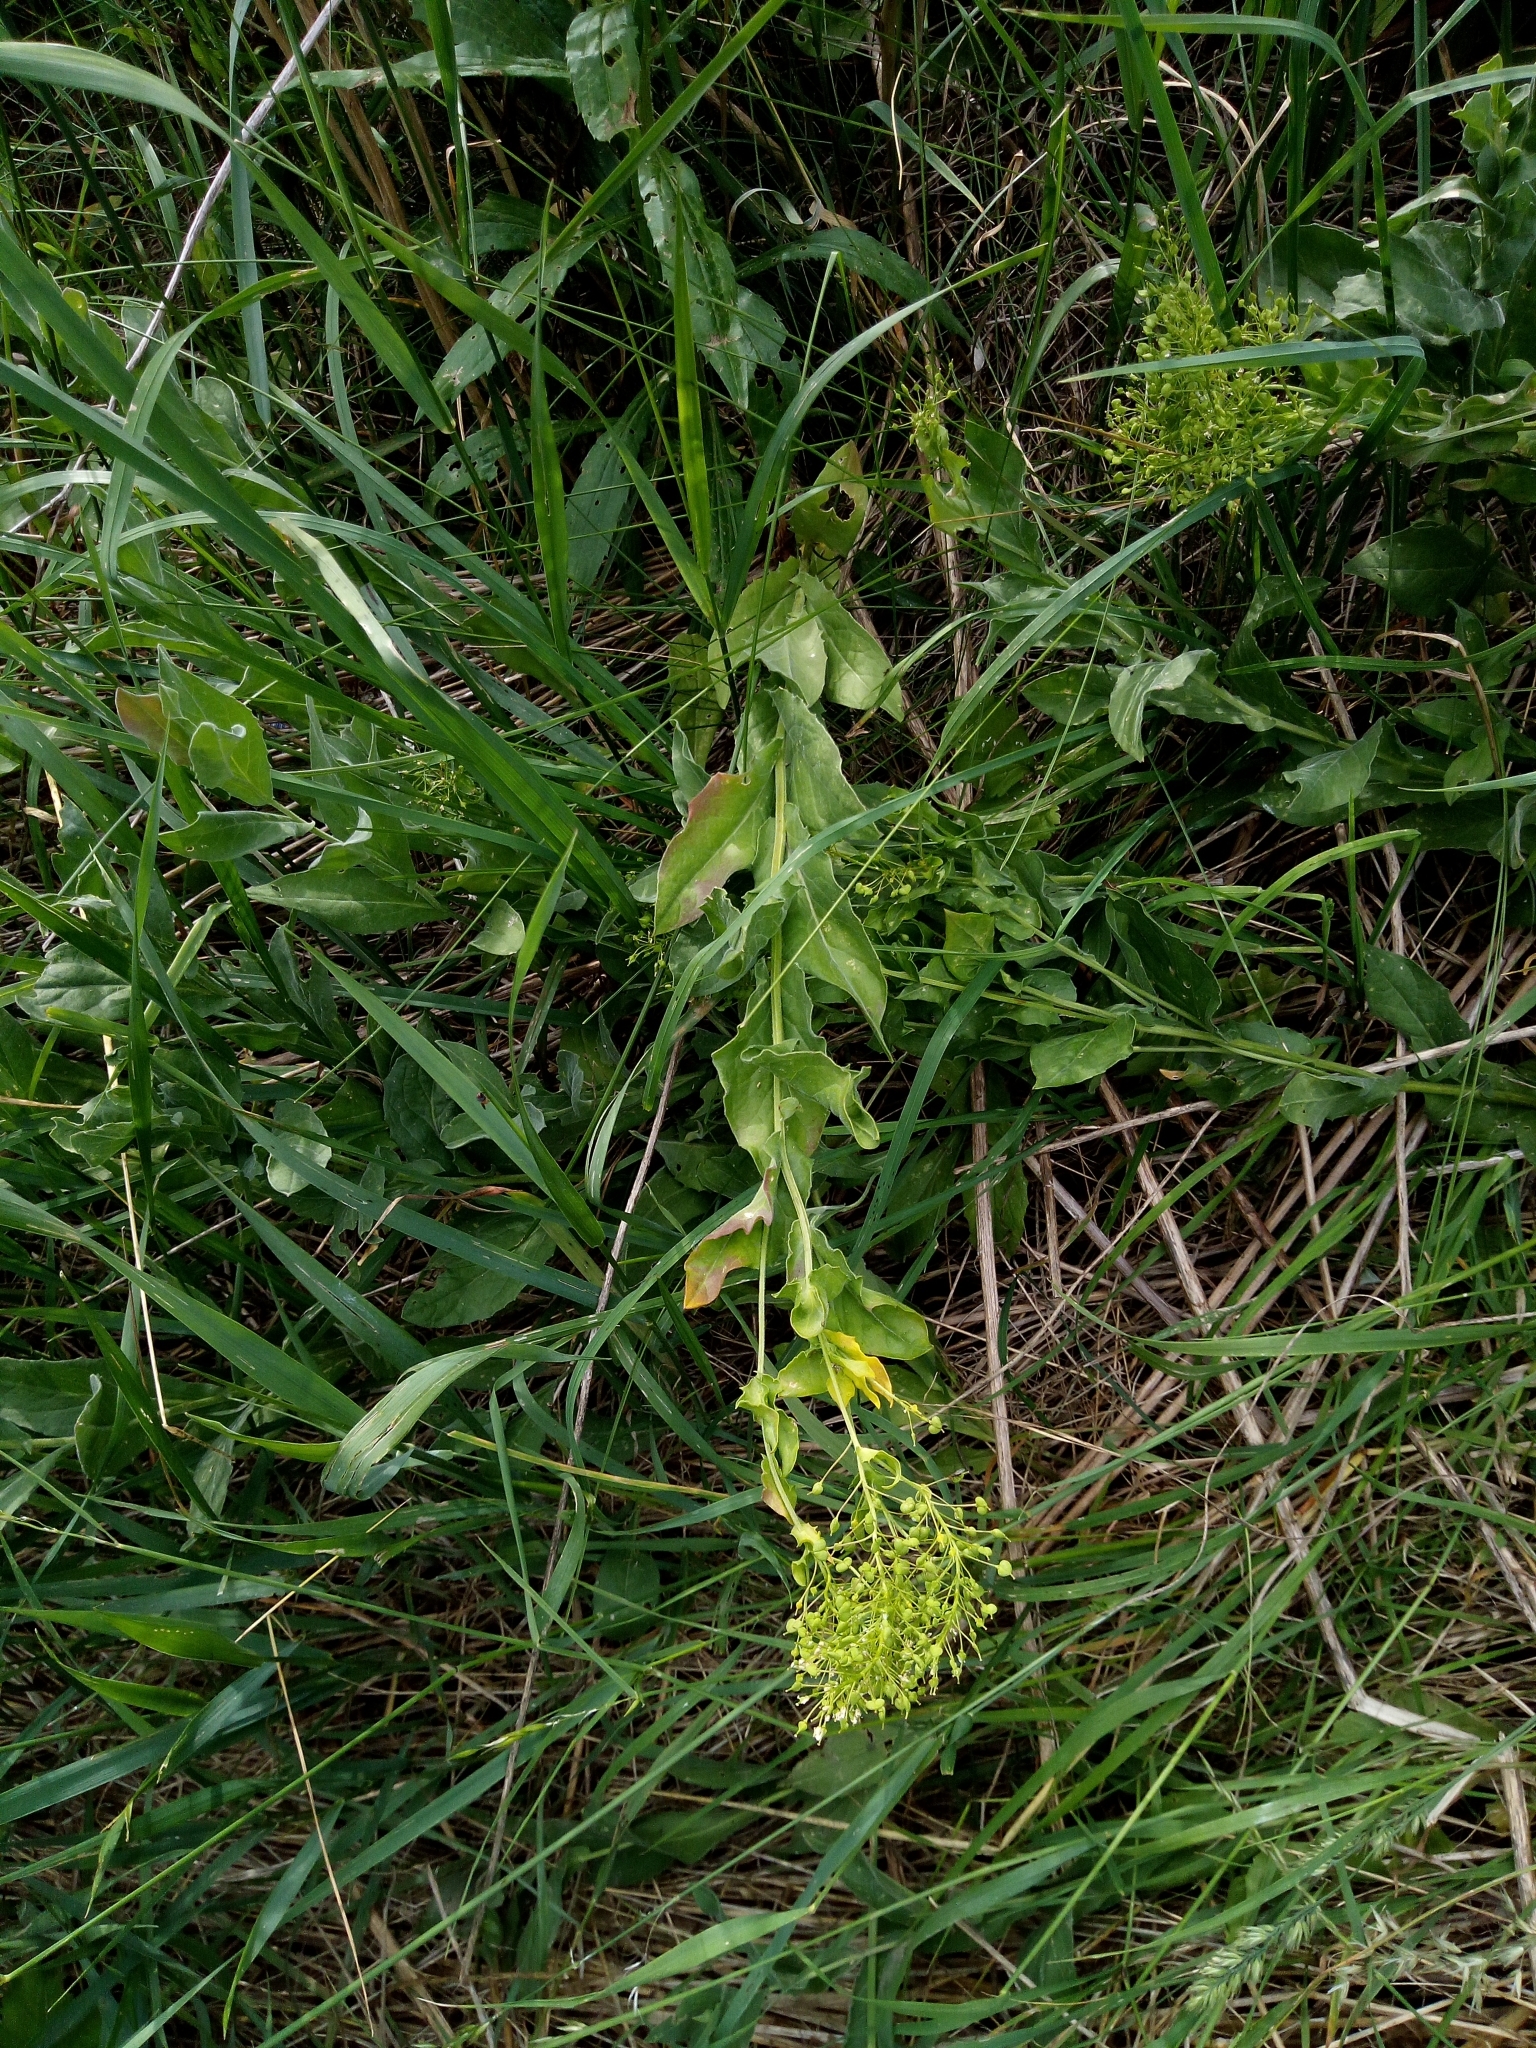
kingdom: Plantae
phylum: Tracheophyta
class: Magnoliopsida
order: Brassicales
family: Brassicaceae
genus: Lepidium
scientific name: Lepidium draba
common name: Hoary cress
